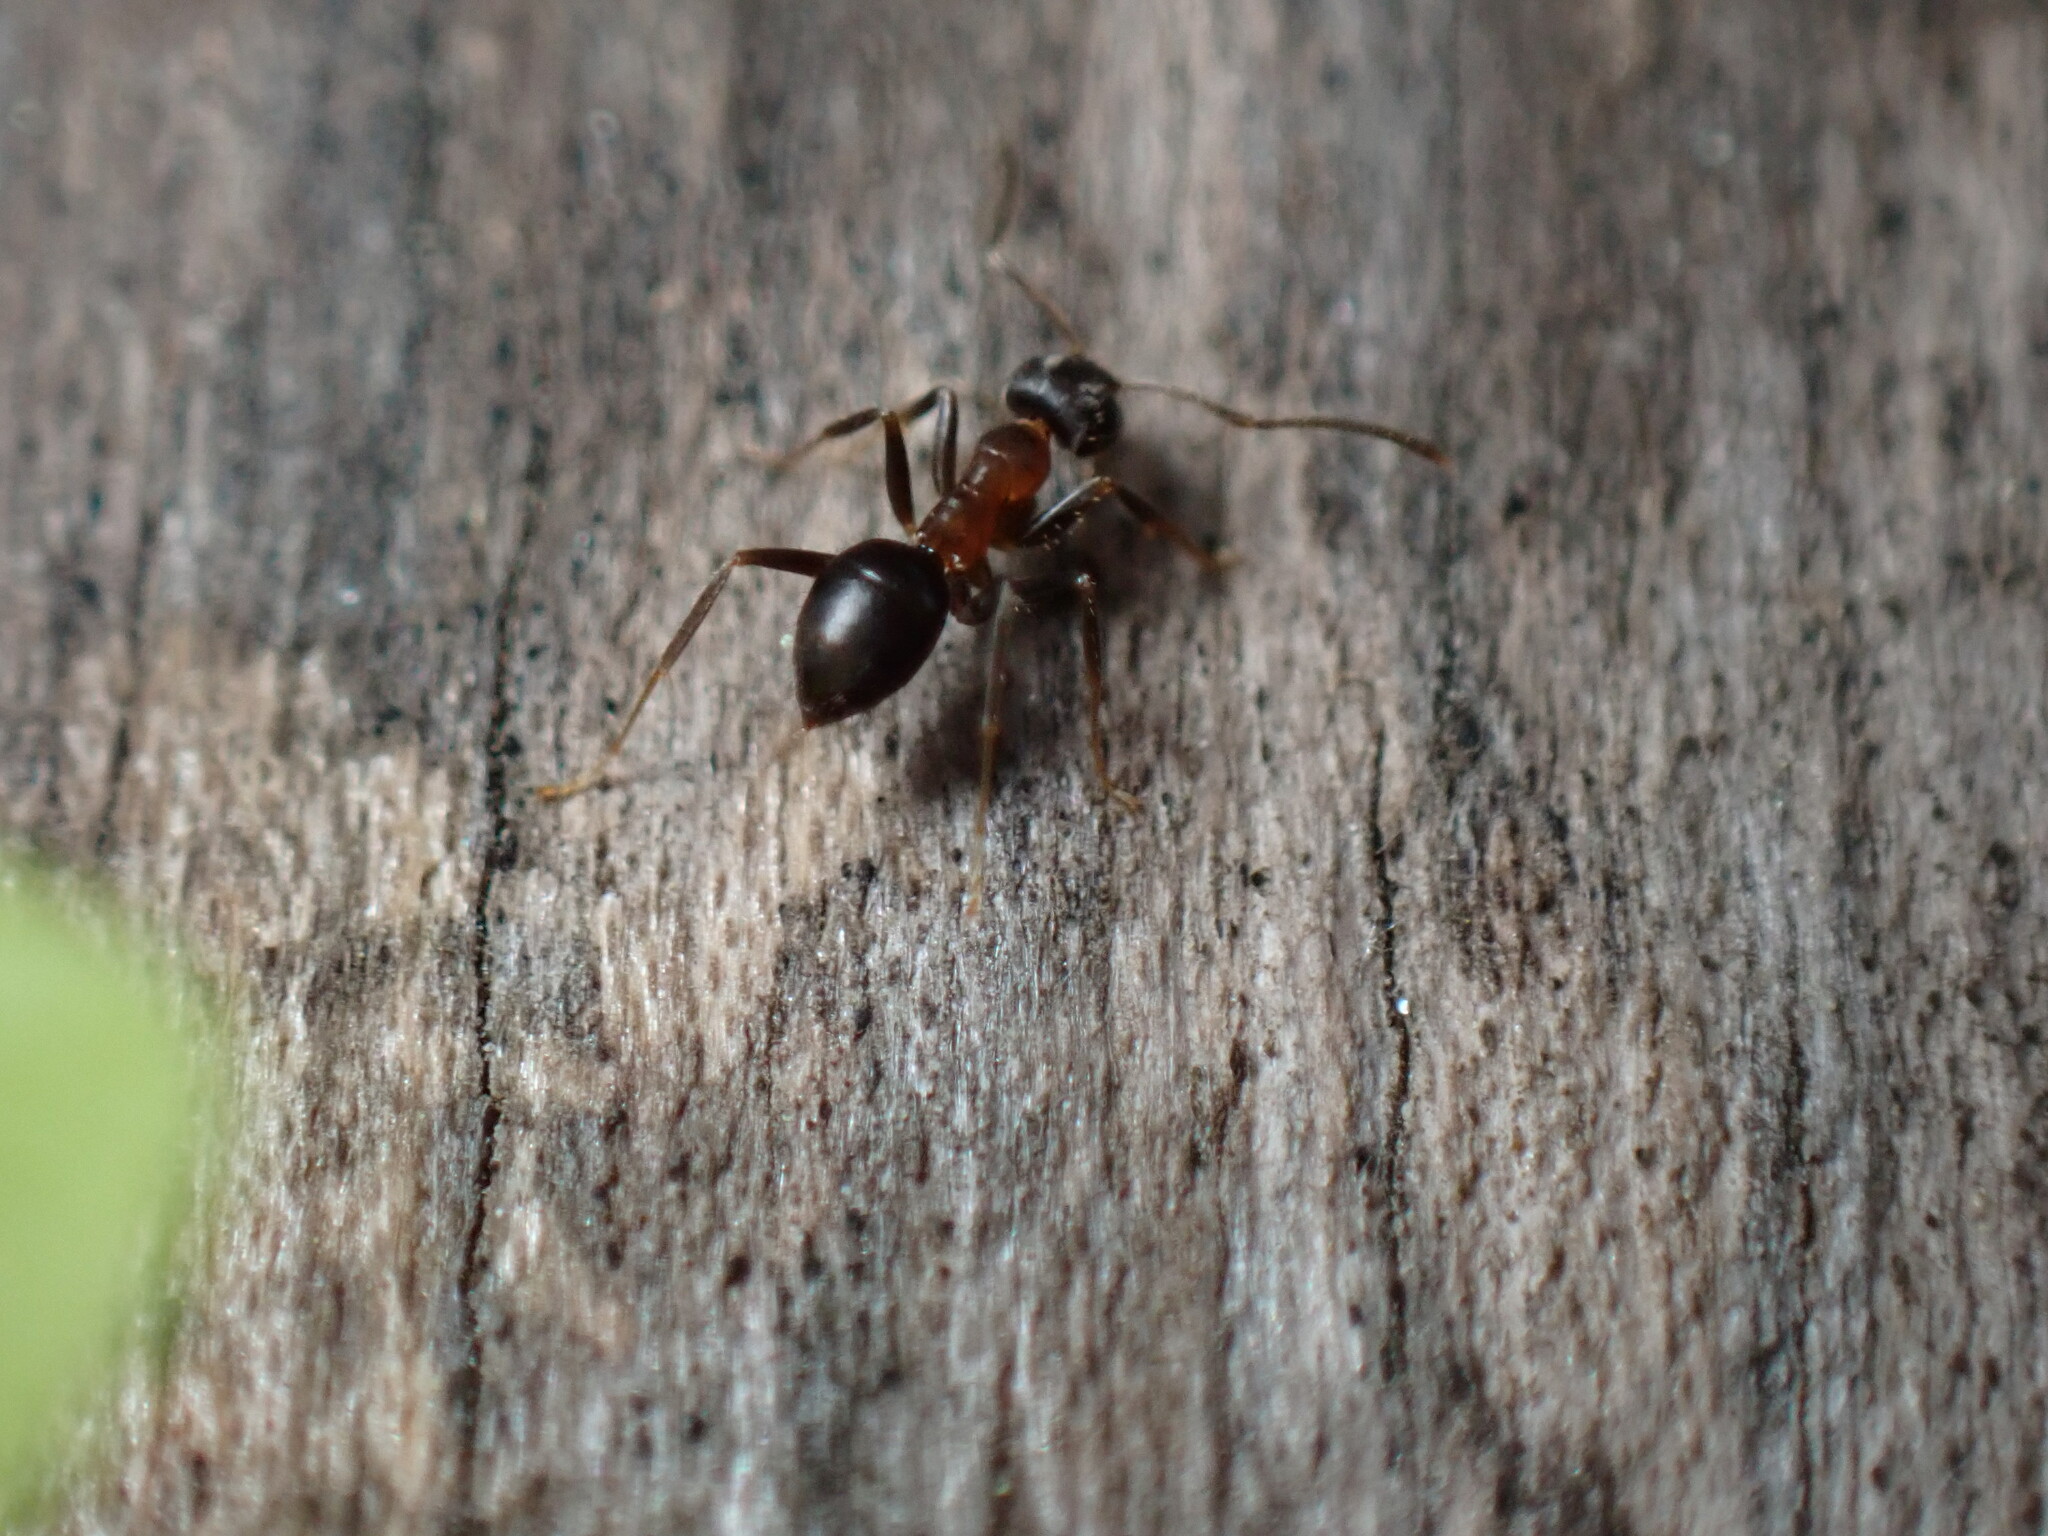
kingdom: Animalia
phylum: Arthropoda
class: Insecta
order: Hymenoptera
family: Formicidae
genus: Lasius
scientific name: Lasius emarginatus
